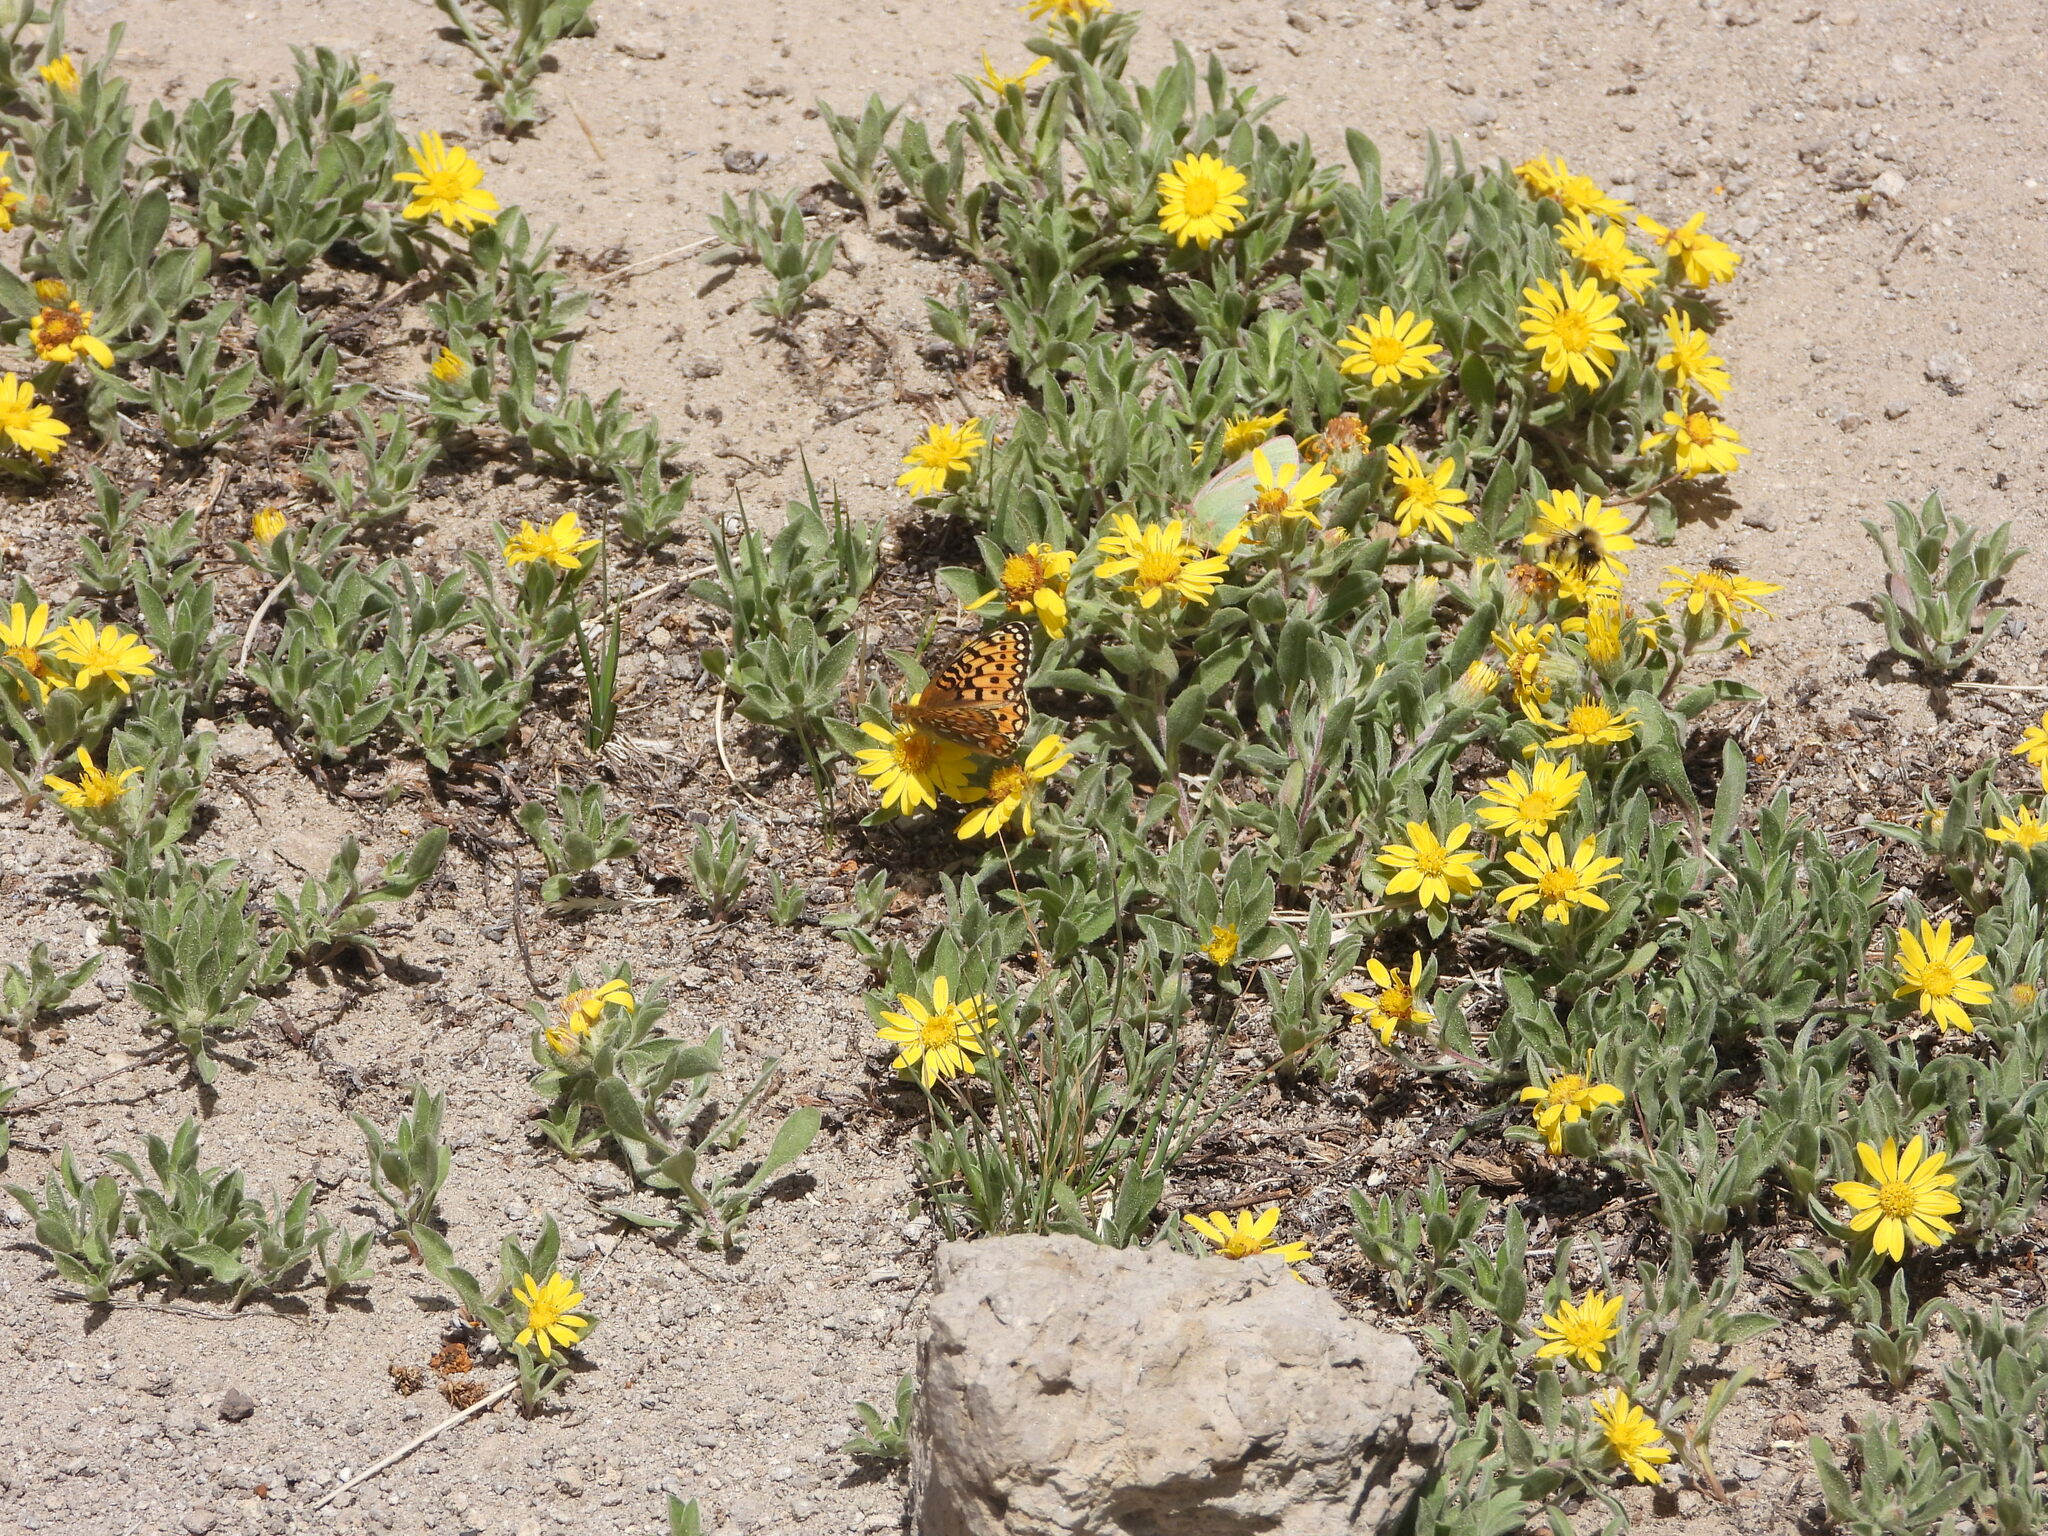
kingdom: Animalia
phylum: Arthropoda
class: Insecta
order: Lepidoptera
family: Pieridae
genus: Colias
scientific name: Colias meadii
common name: Mead's sulphur
